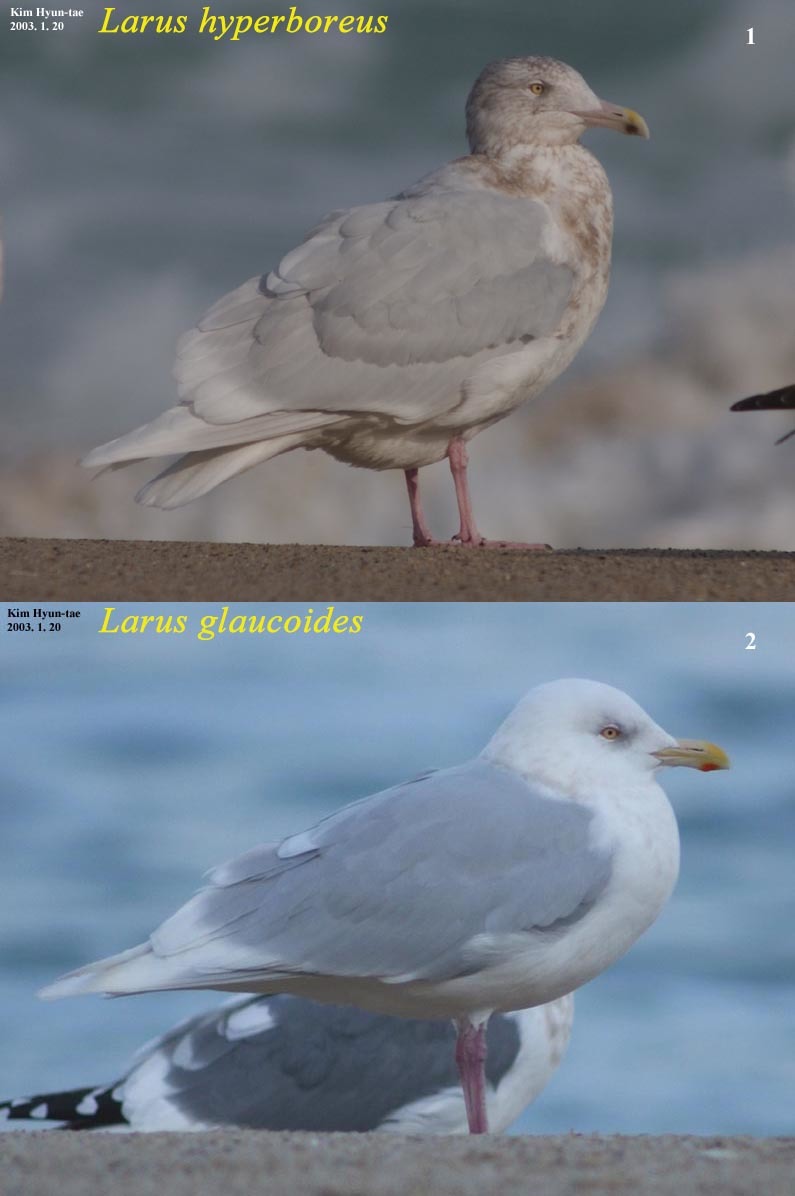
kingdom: Animalia
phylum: Chordata
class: Aves
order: Charadriiformes
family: Laridae
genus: Larus
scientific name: Larus hyperboreus
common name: Glaucous gull
